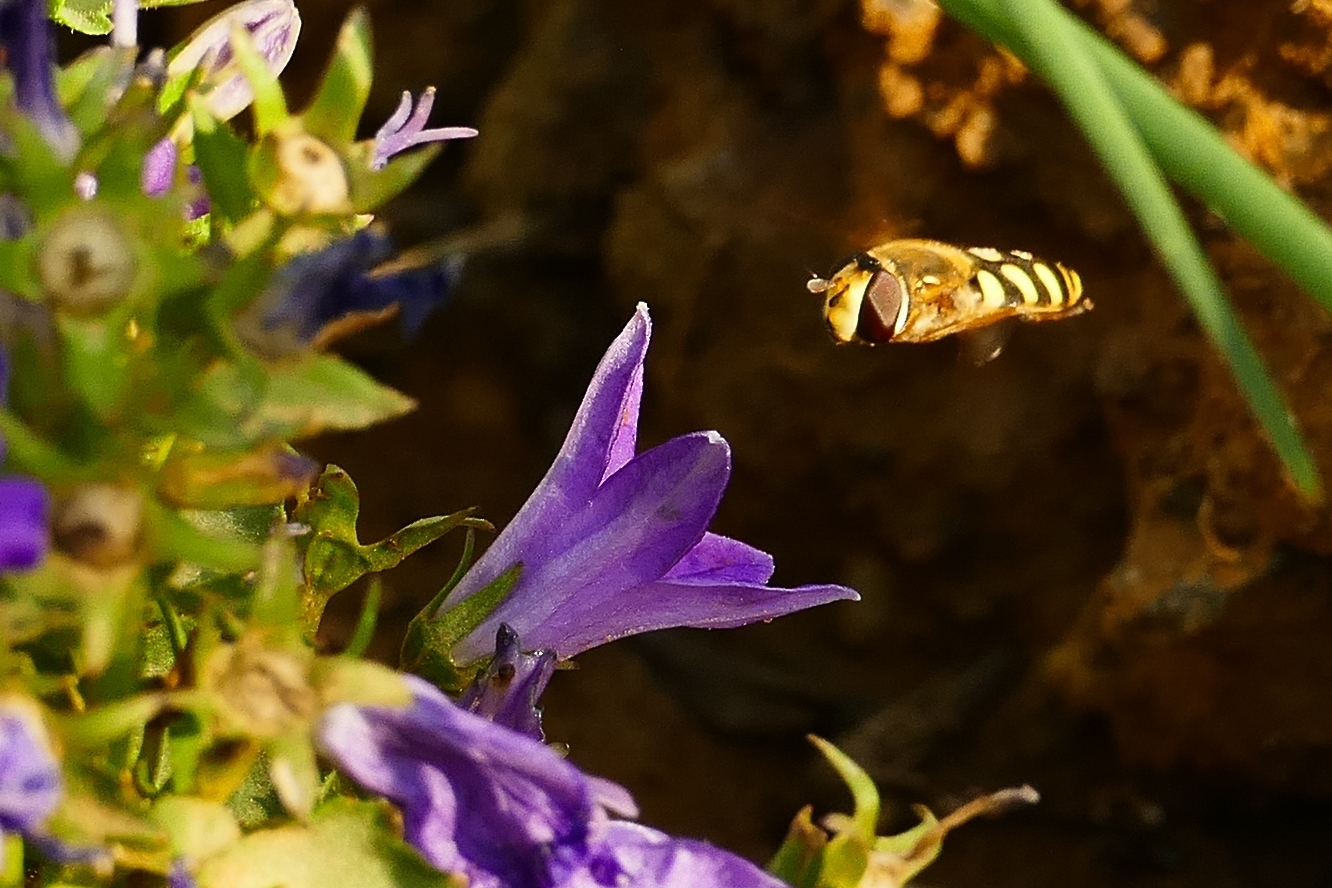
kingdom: Animalia
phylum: Arthropoda
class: Insecta
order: Diptera
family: Syrphidae
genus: Eupeodes
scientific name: Eupeodes corollae
